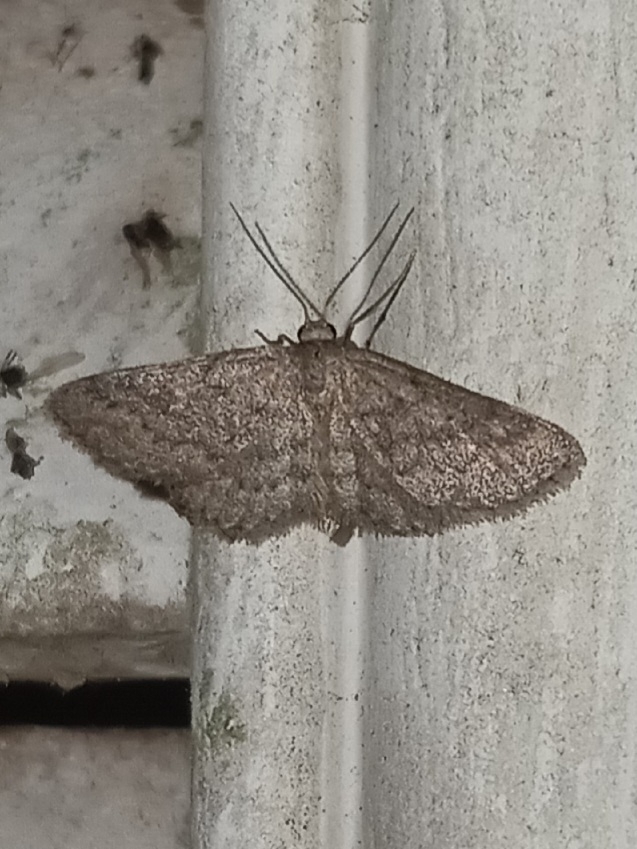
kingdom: Animalia
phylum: Arthropoda
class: Insecta
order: Lepidoptera
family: Geometridae
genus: Lobocleta
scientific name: Lobocleta ossularia
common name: Drab brown wave
